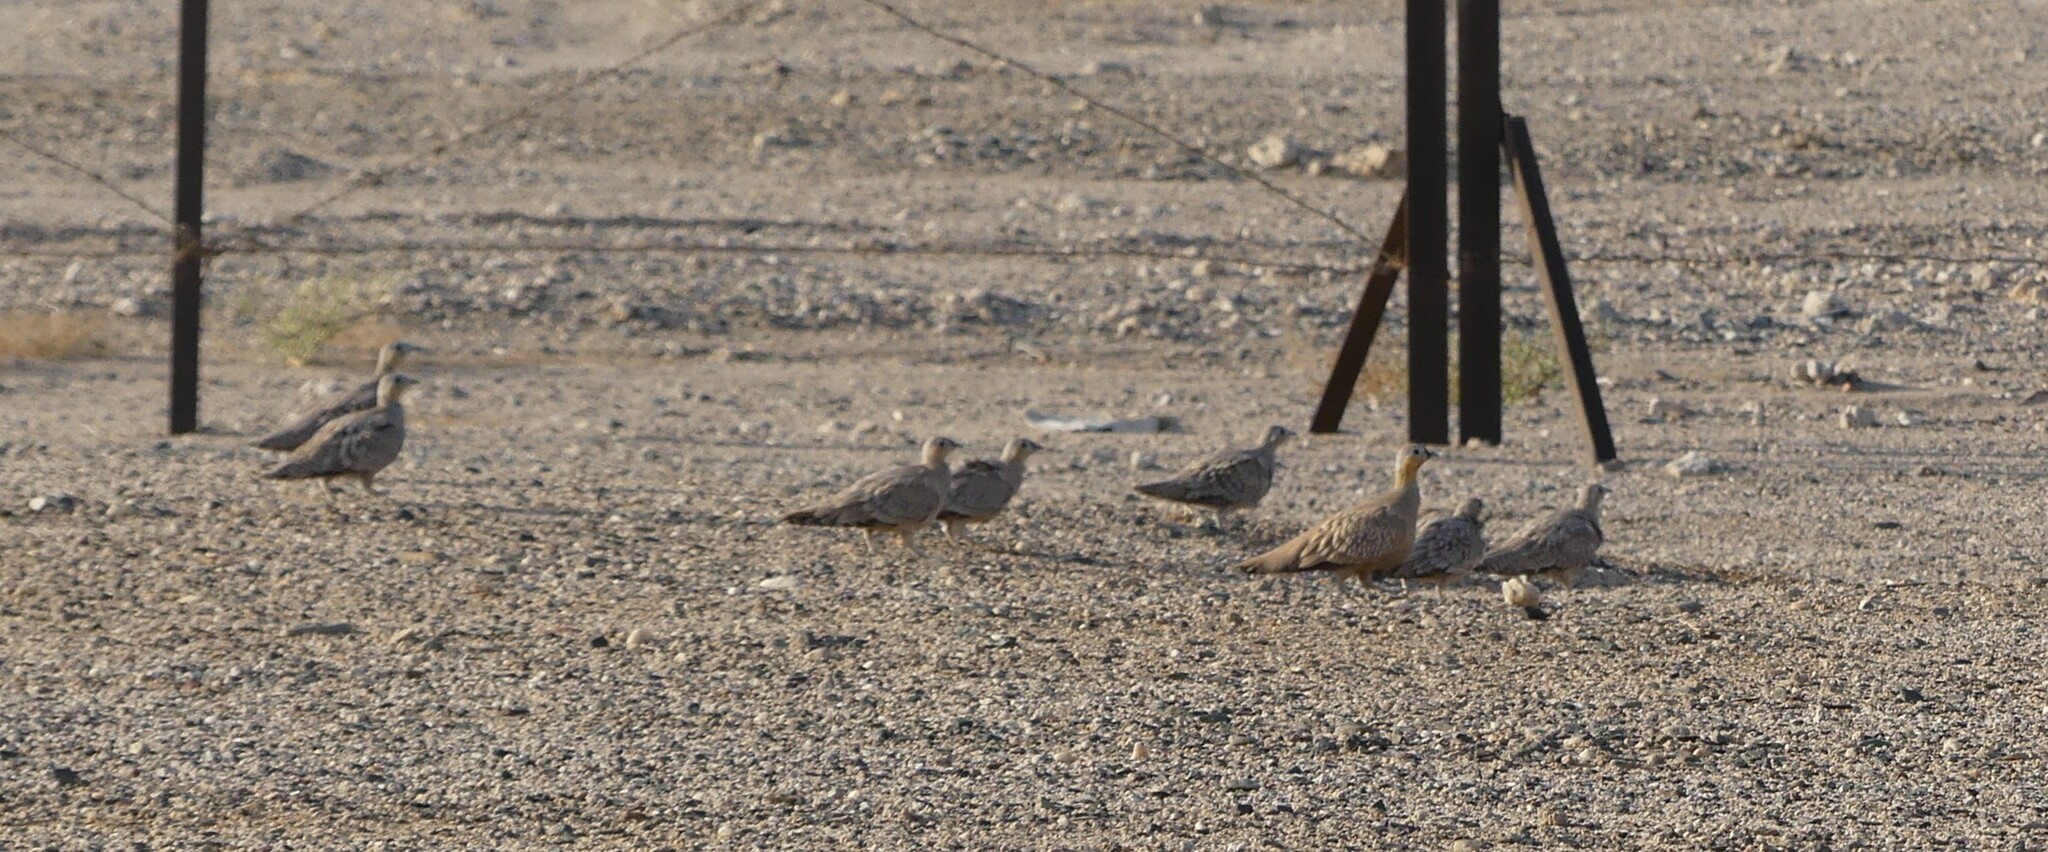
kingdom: Animalia
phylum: Chordata
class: Aves
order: Pteroclidiformes
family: Pteroclididae
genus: Pterocles
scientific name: Pterocles coronatus
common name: Crowned sandgrouse
